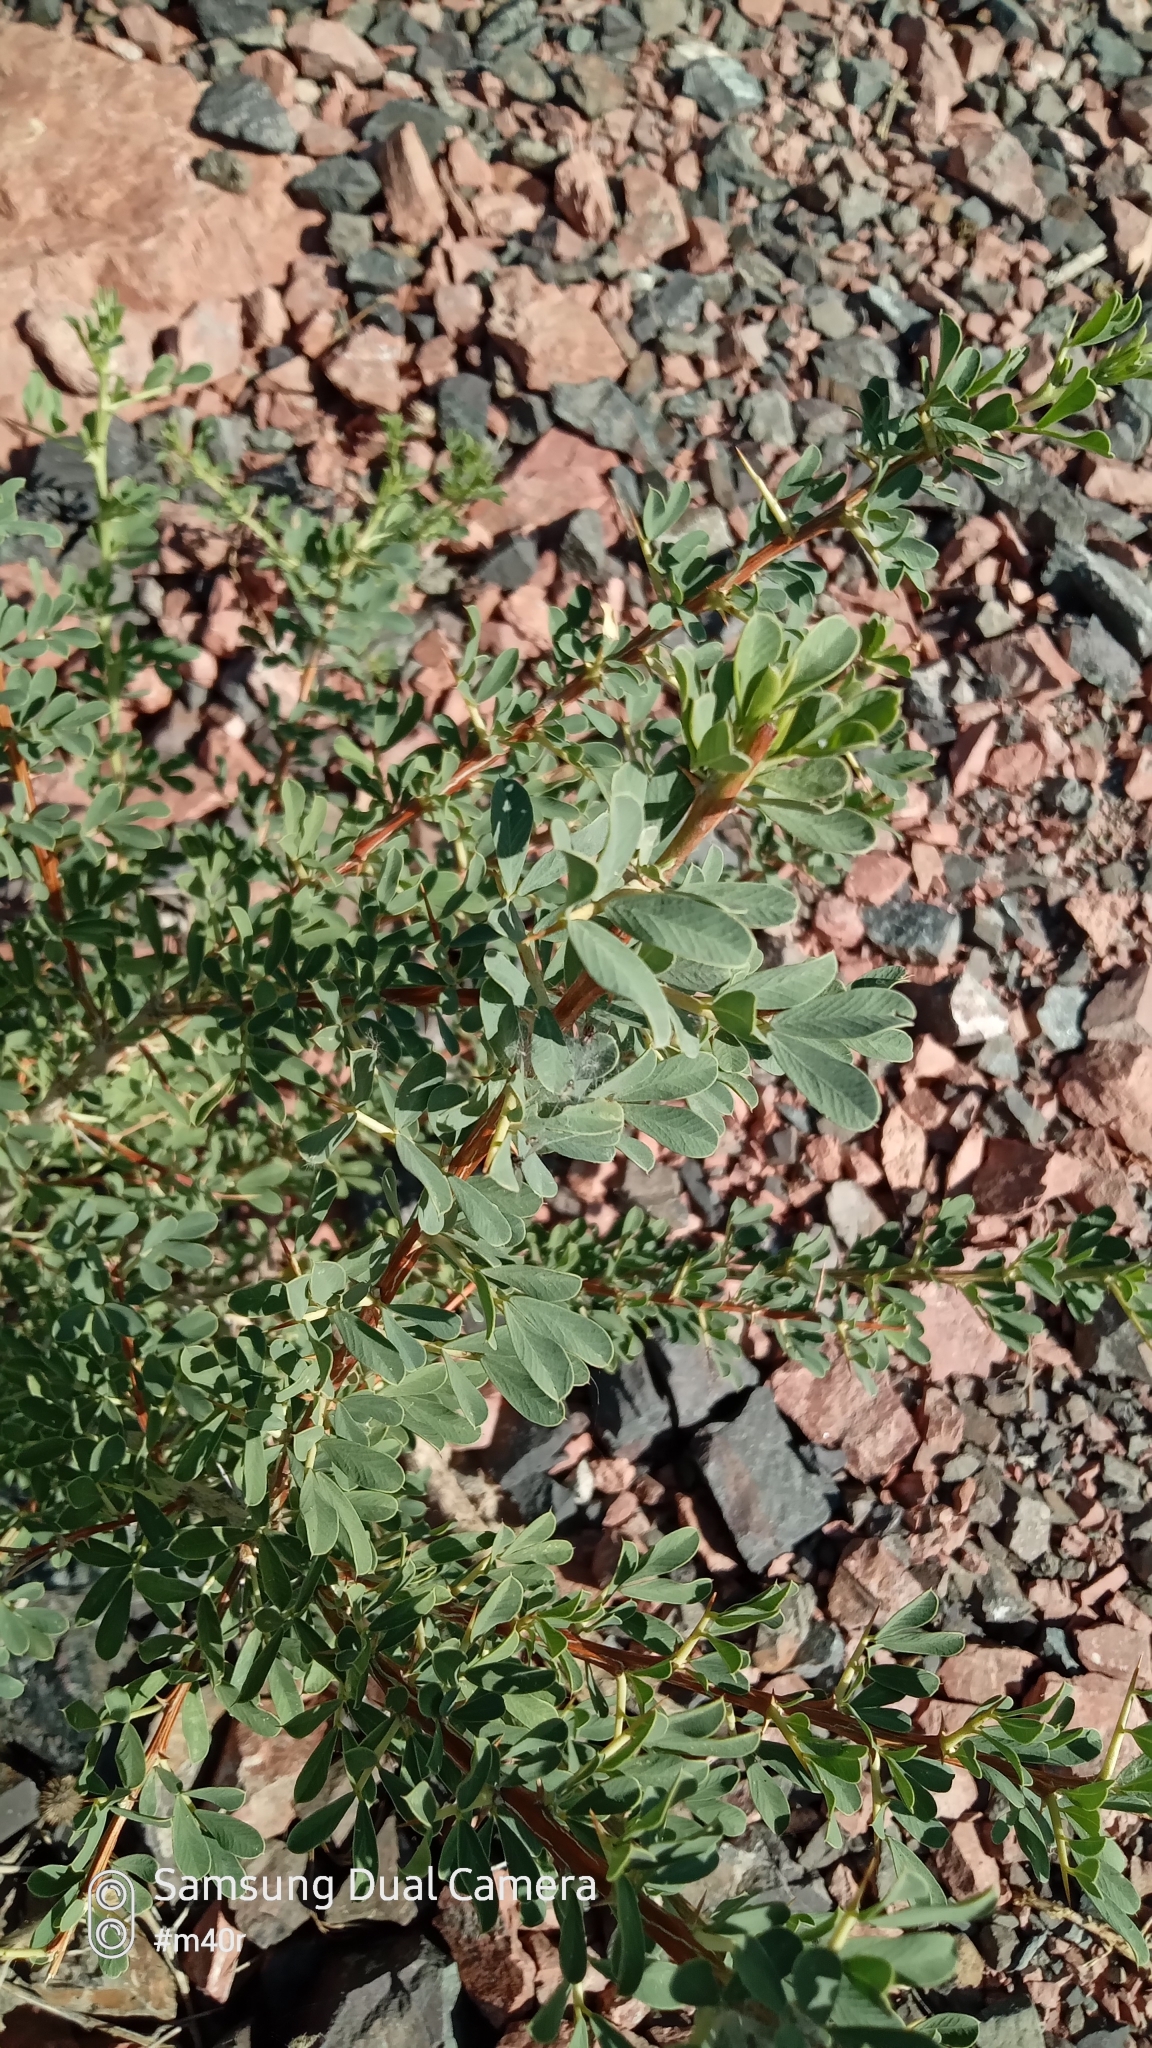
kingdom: Plantae
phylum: Tracheophyta
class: Magnoliopsida
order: Fabales
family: Fabaceae
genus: Caragana
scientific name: Caragana halodendron
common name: Siberian salt-tree
